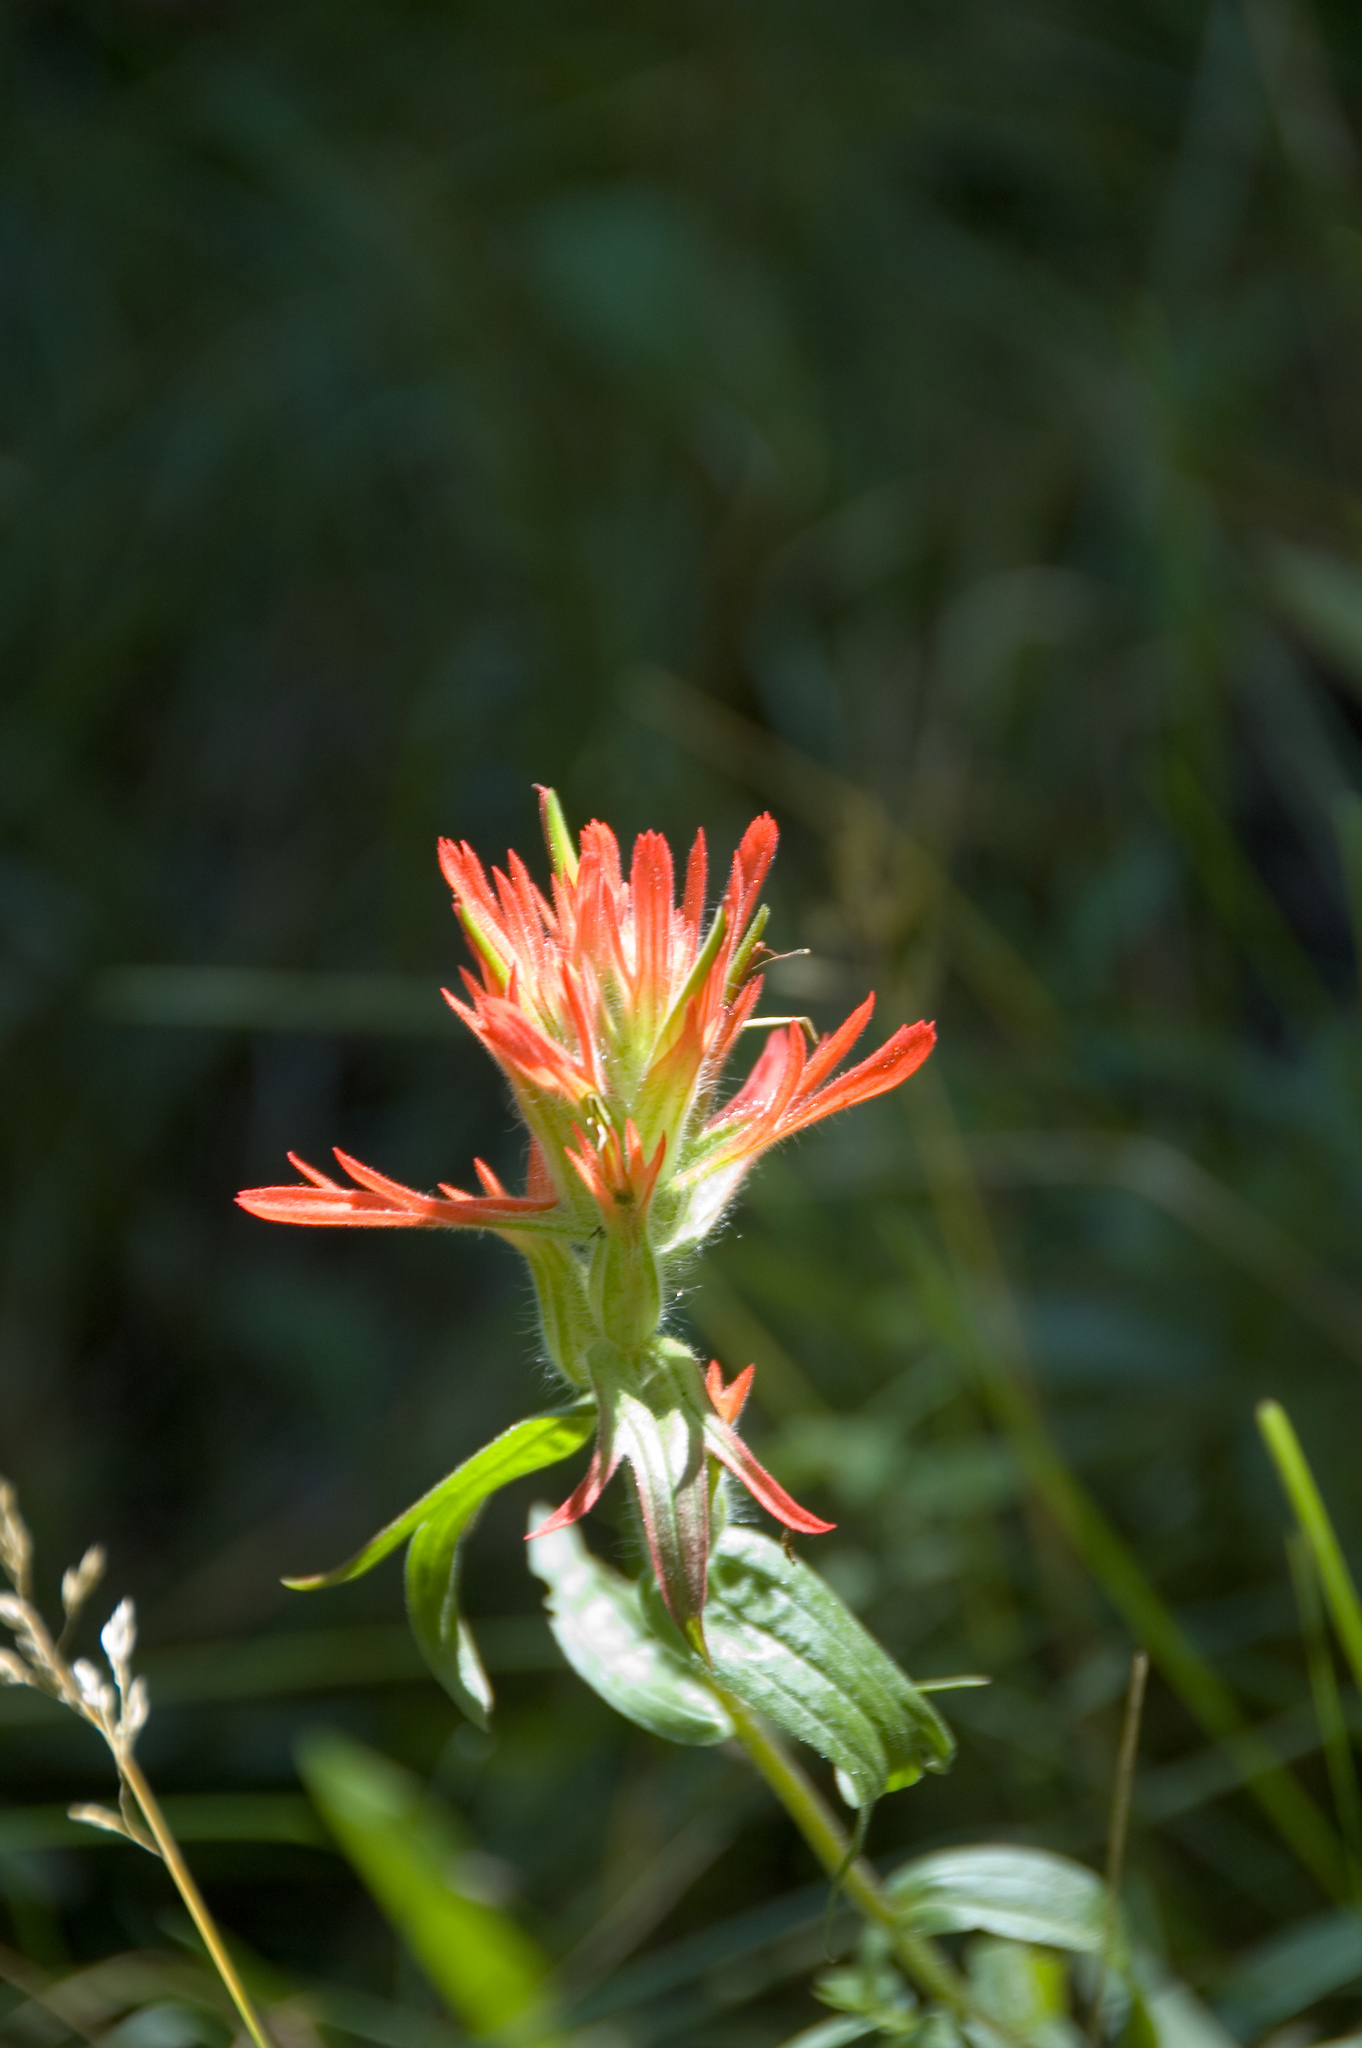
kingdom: Plantae
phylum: Tracheophyta
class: Magnoliopsida
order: Lamiales
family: Orobanchaceae
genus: Castilleja
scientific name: Castilleja miniata
